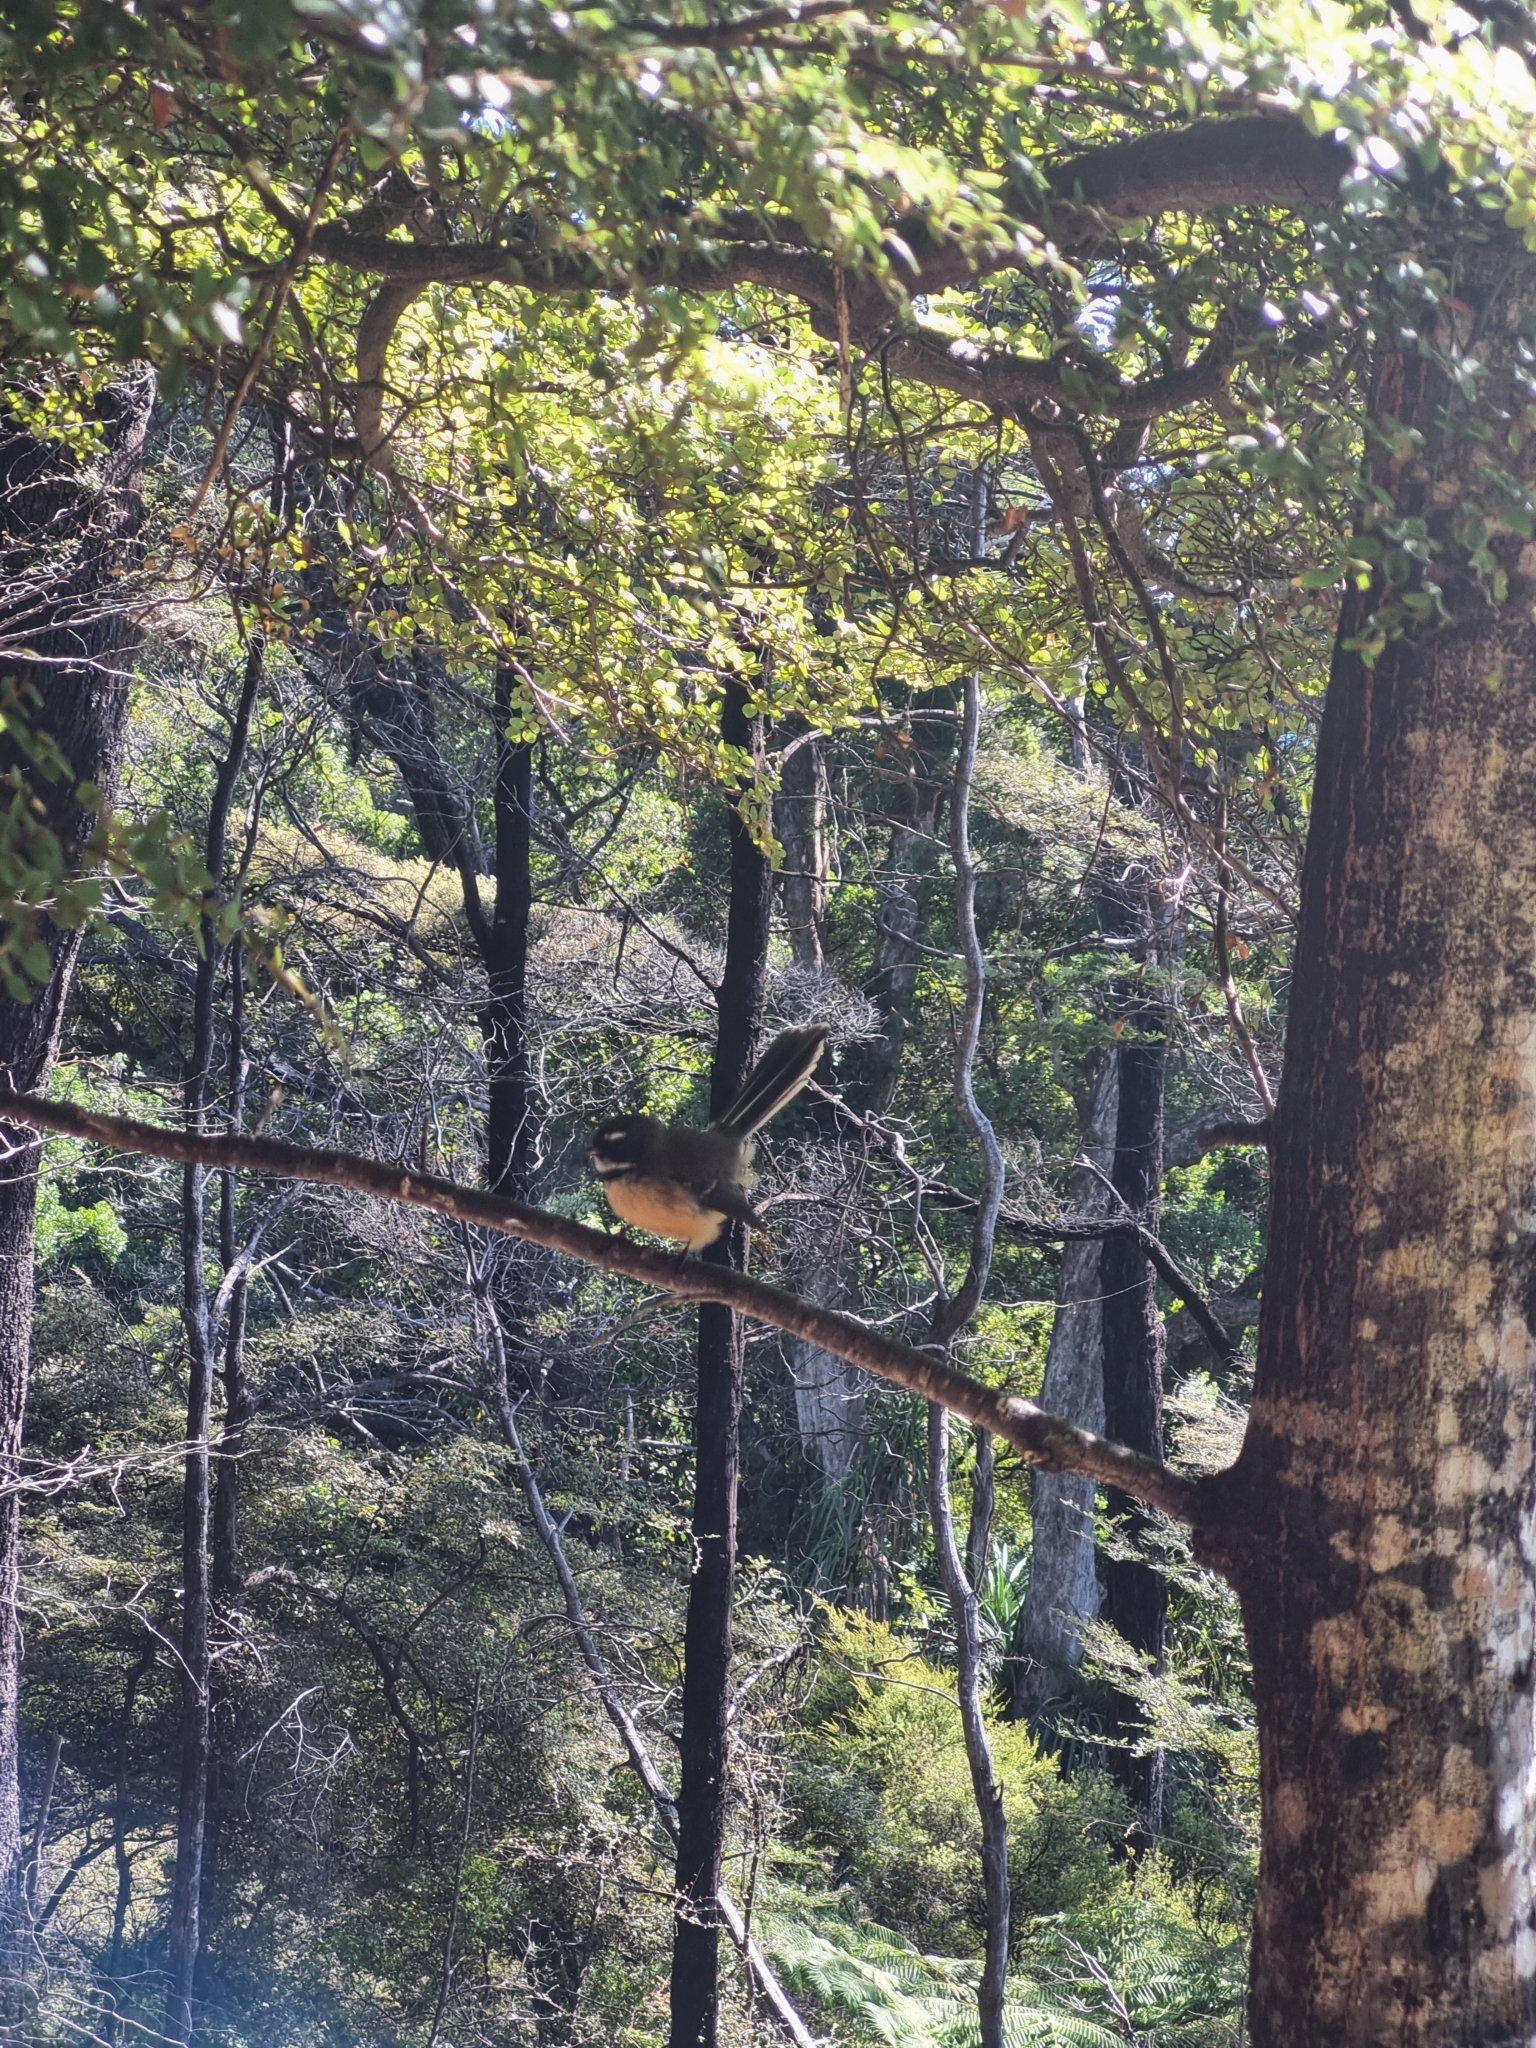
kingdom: Animalia
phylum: Chordata
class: Aves
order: Passeriformes
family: Rhipiduridae
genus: Rhipidura
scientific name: Rhipidura fuliginosa
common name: New zealand fantail
